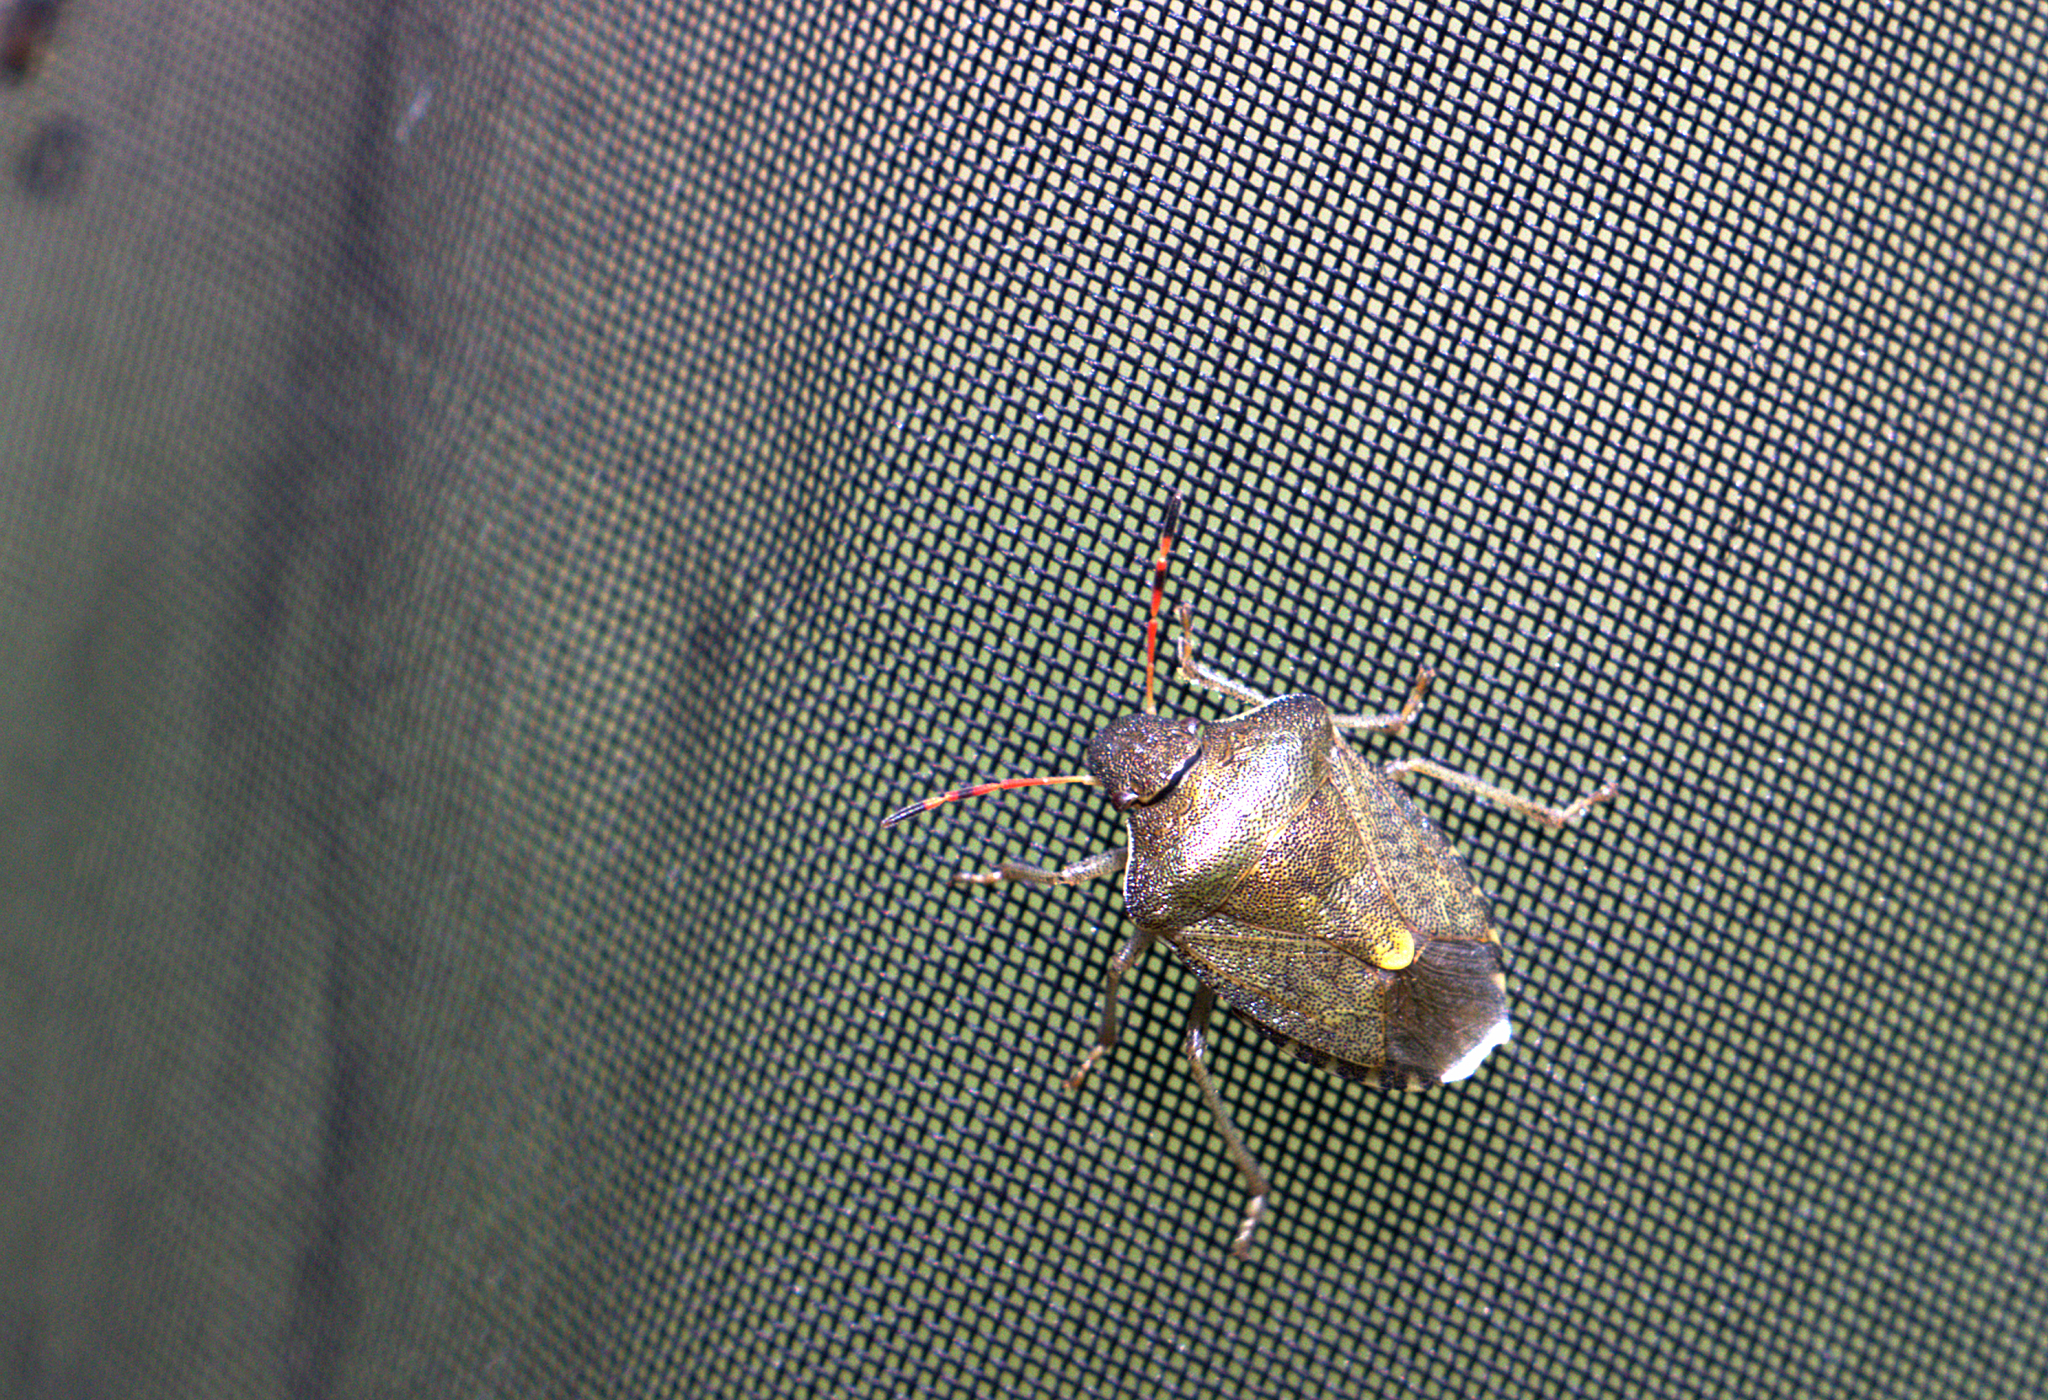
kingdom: Animalia
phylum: Arthropoda
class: Insecta
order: Hemiptera
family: Pentatomidae
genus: Holcostethus
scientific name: Holcostethus strictus
